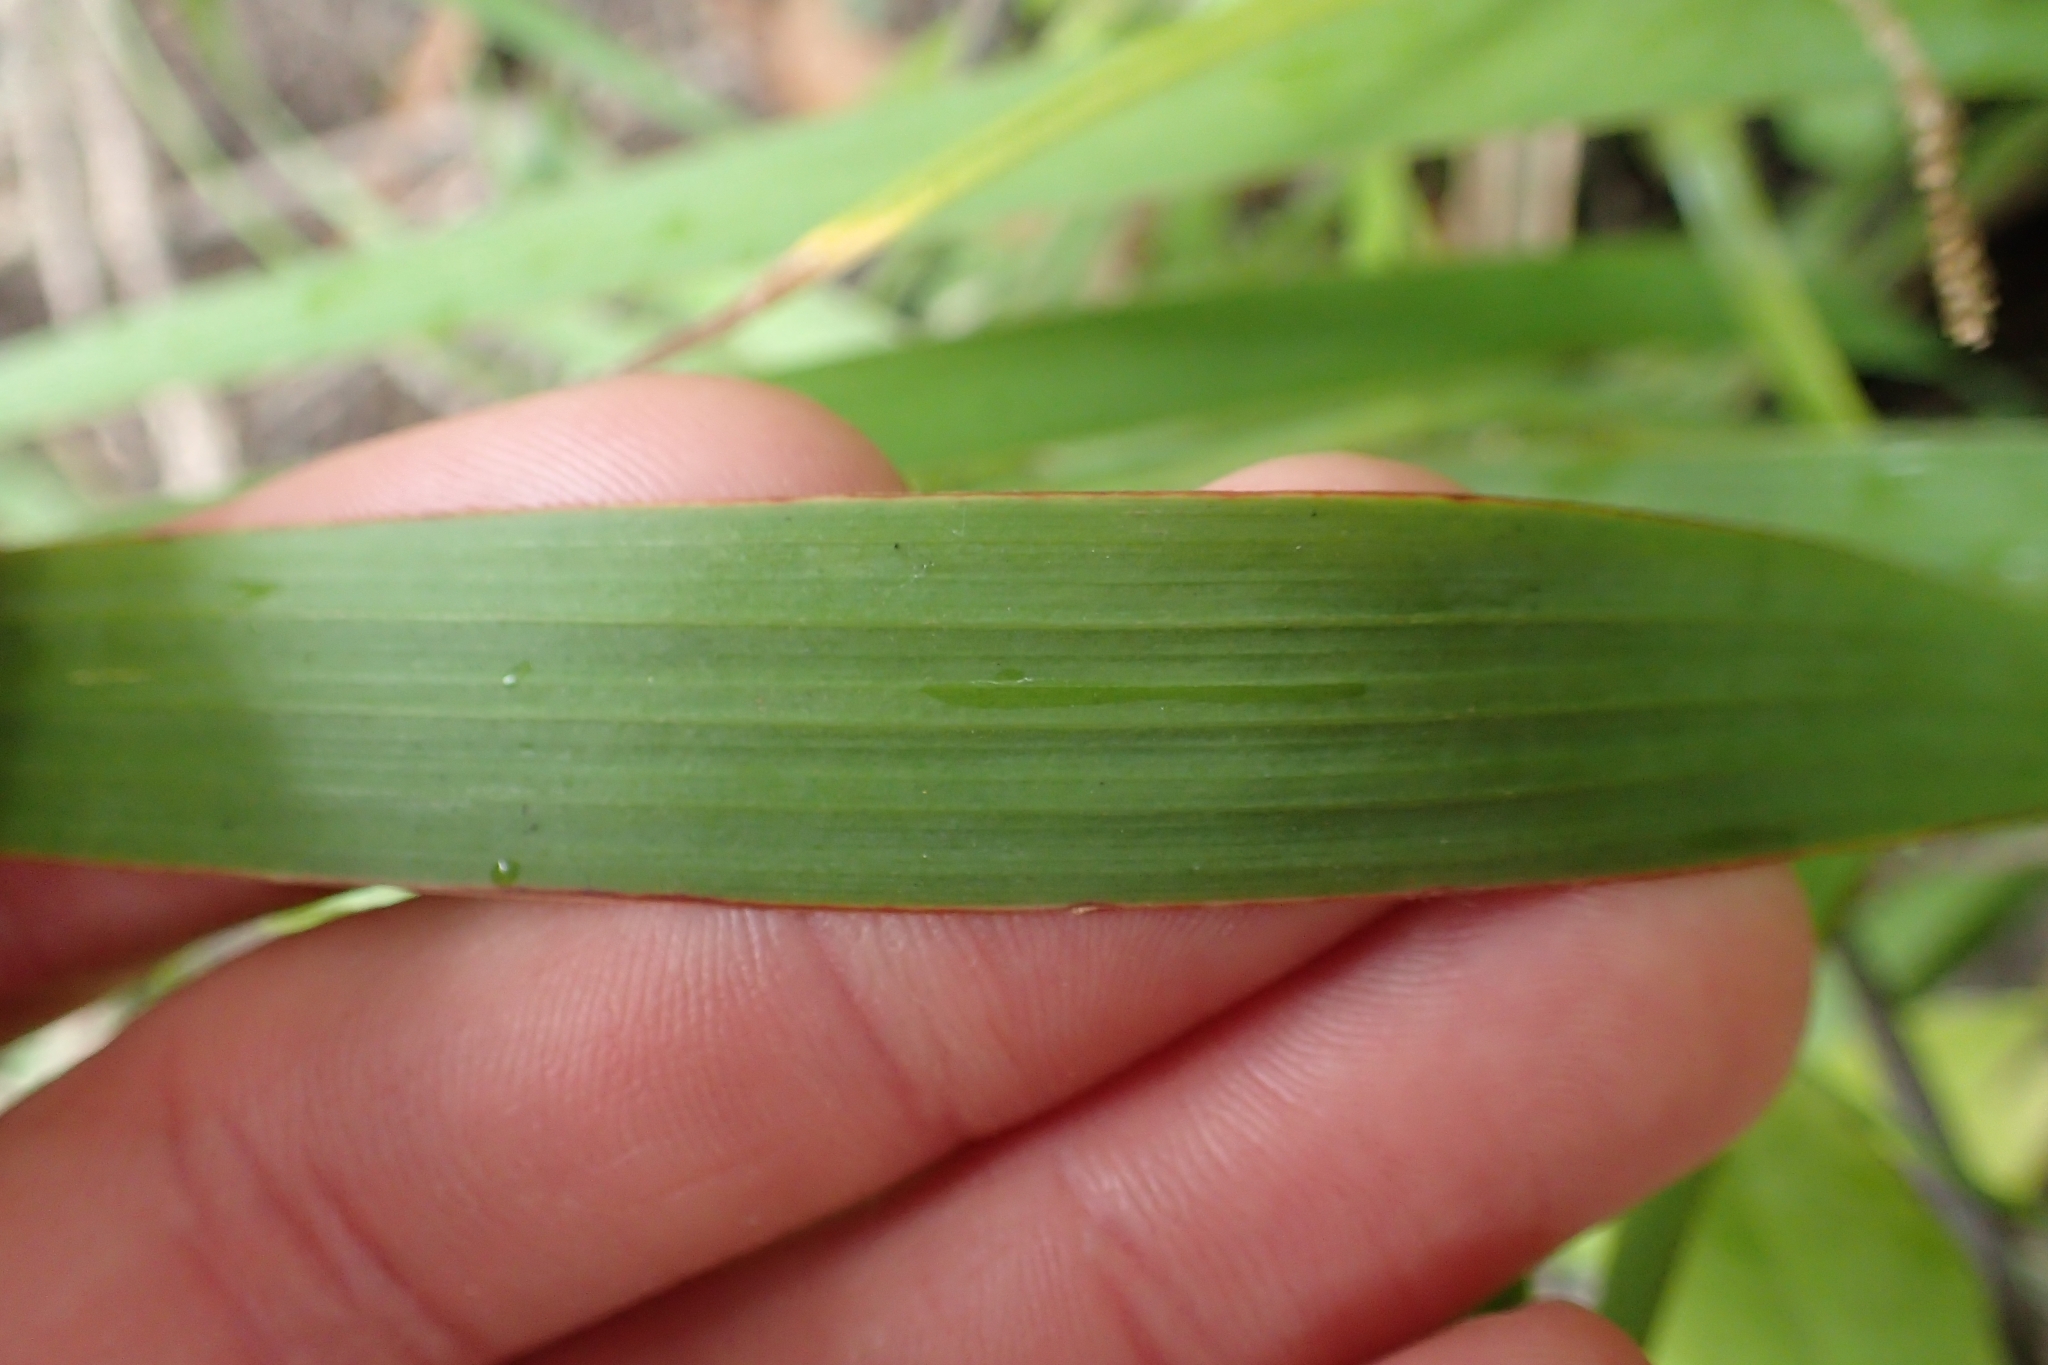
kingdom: Plantae
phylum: Tracheophyta
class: Liliopsida
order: Asparagales
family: Iridaceae
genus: Aristea
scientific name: Aristea ecklonii
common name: Blue corn-lily
